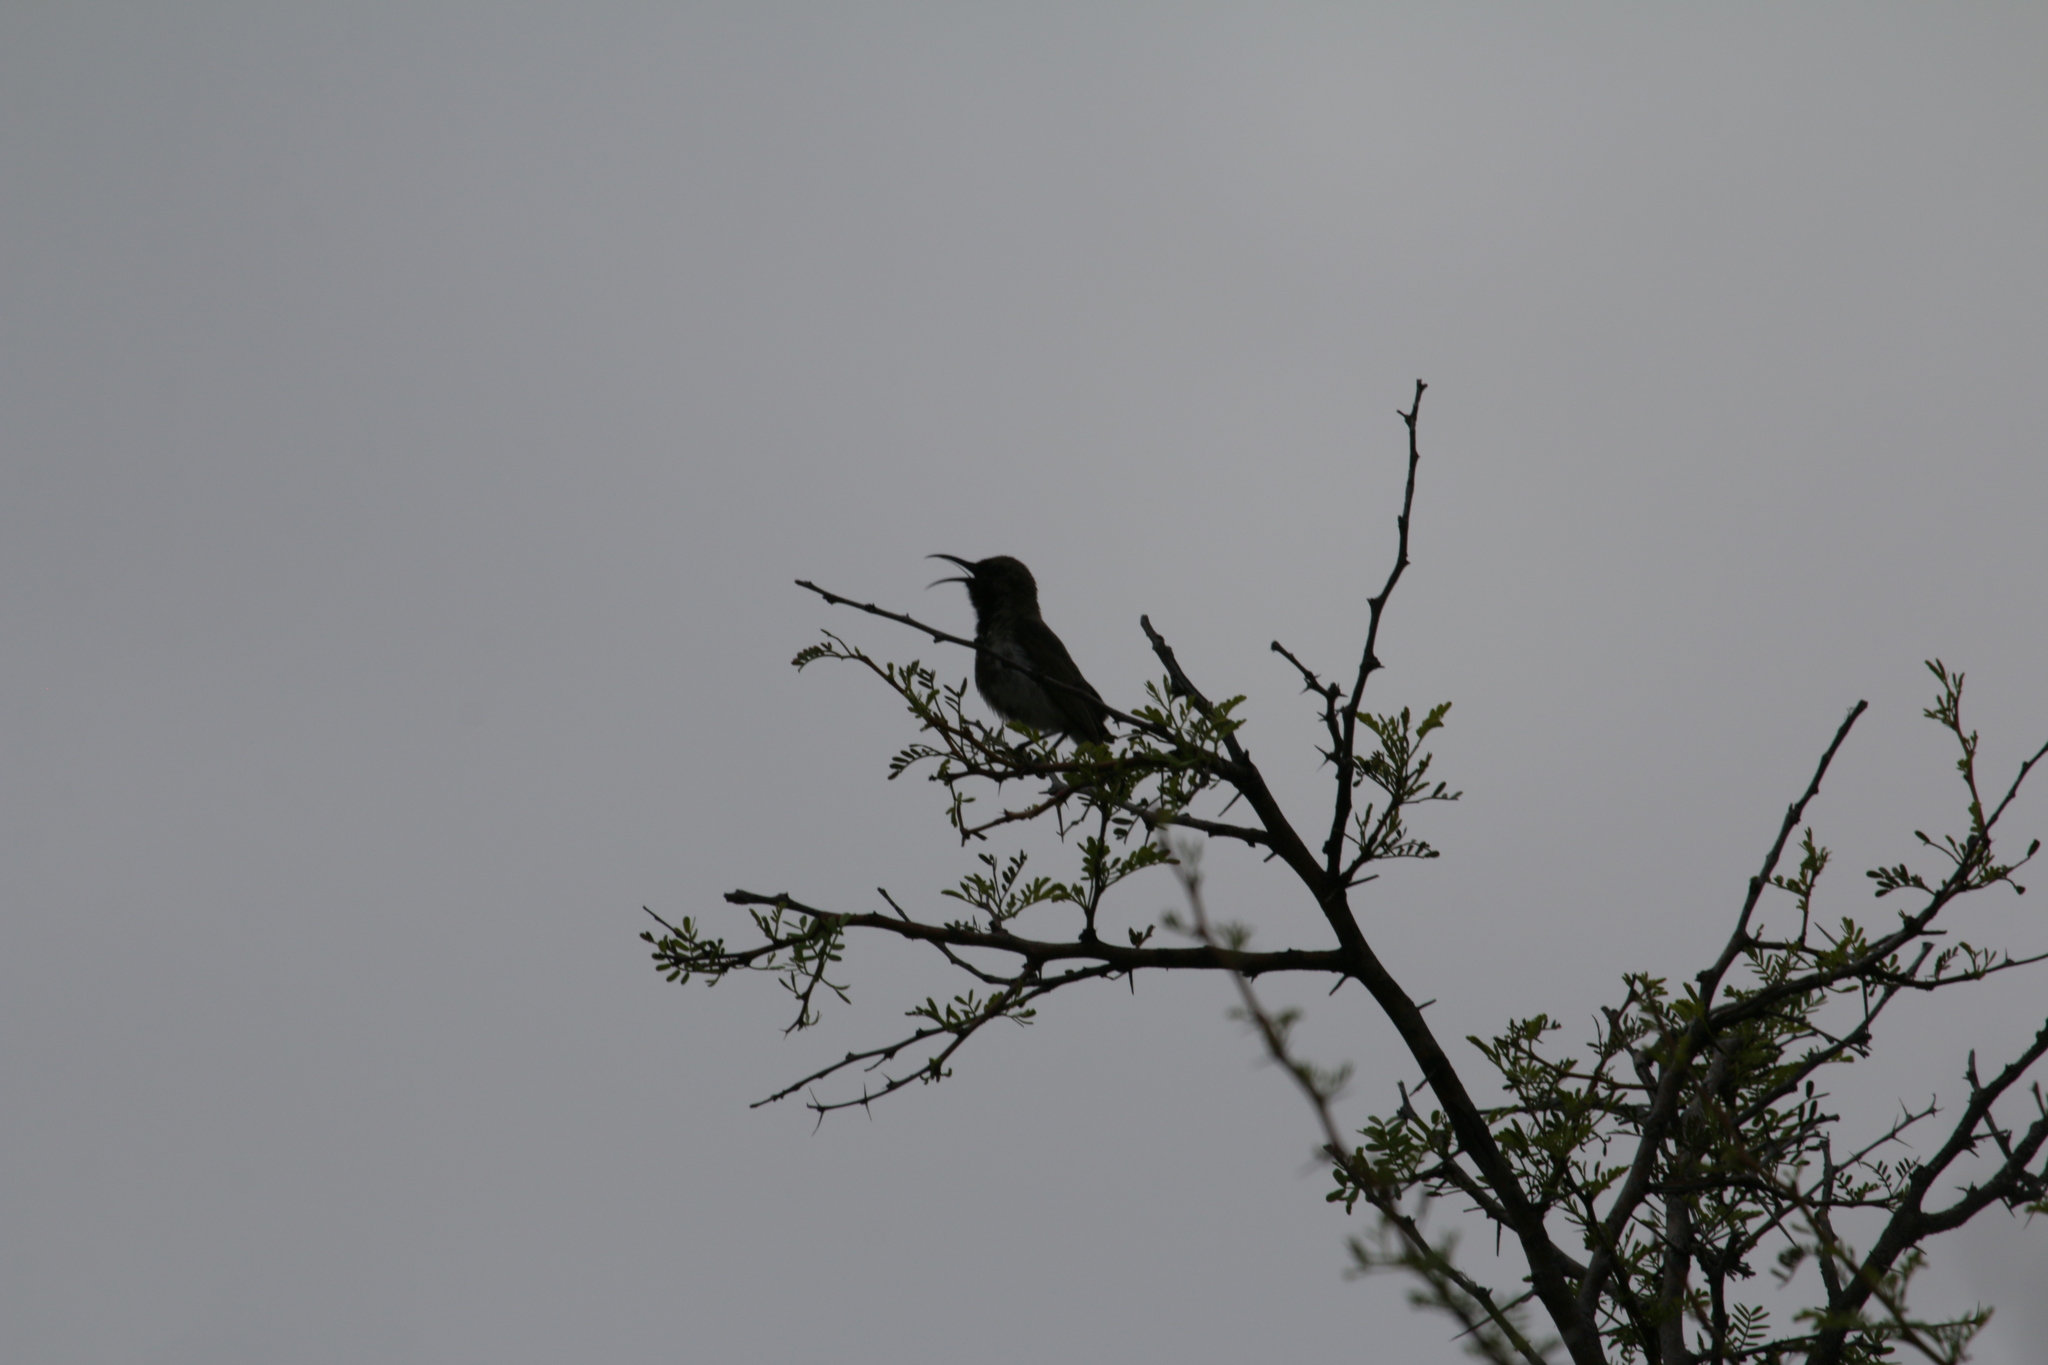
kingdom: Animalia
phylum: Chordata
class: Aves
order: Passeriformes
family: Nectariniidae
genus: Cinnyris
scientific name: Cinnyris fuscus
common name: Dusky sunbird
